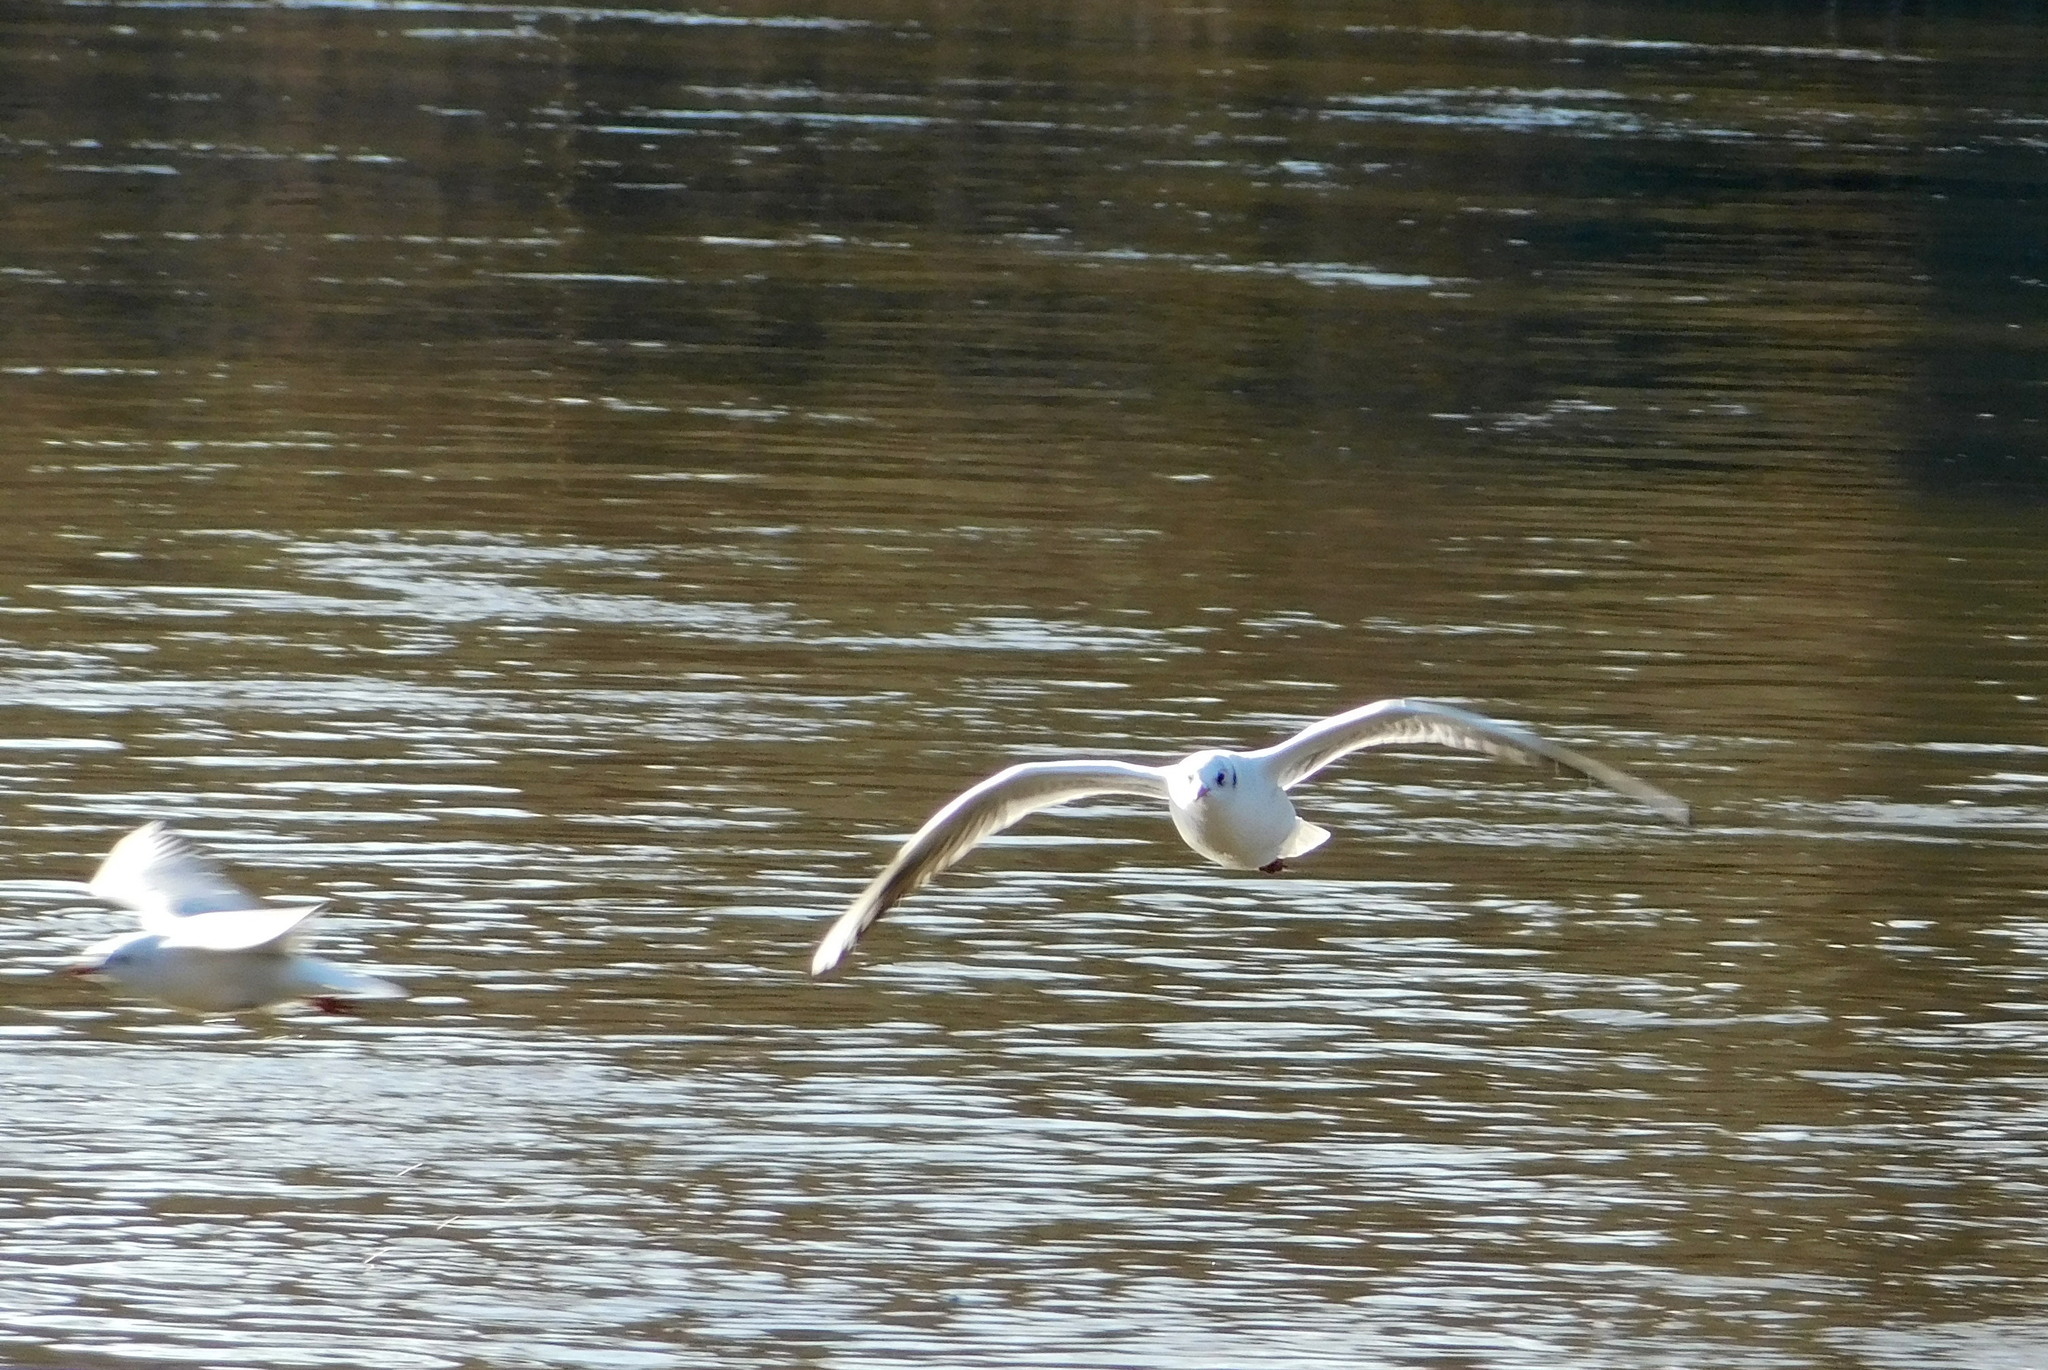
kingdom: Animalia
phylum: Chordata
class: Aves
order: Charadriiformes
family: Laridae
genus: Chroicocephalus
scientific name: Chroicocephalus ridibundus
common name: Black-headed gull
